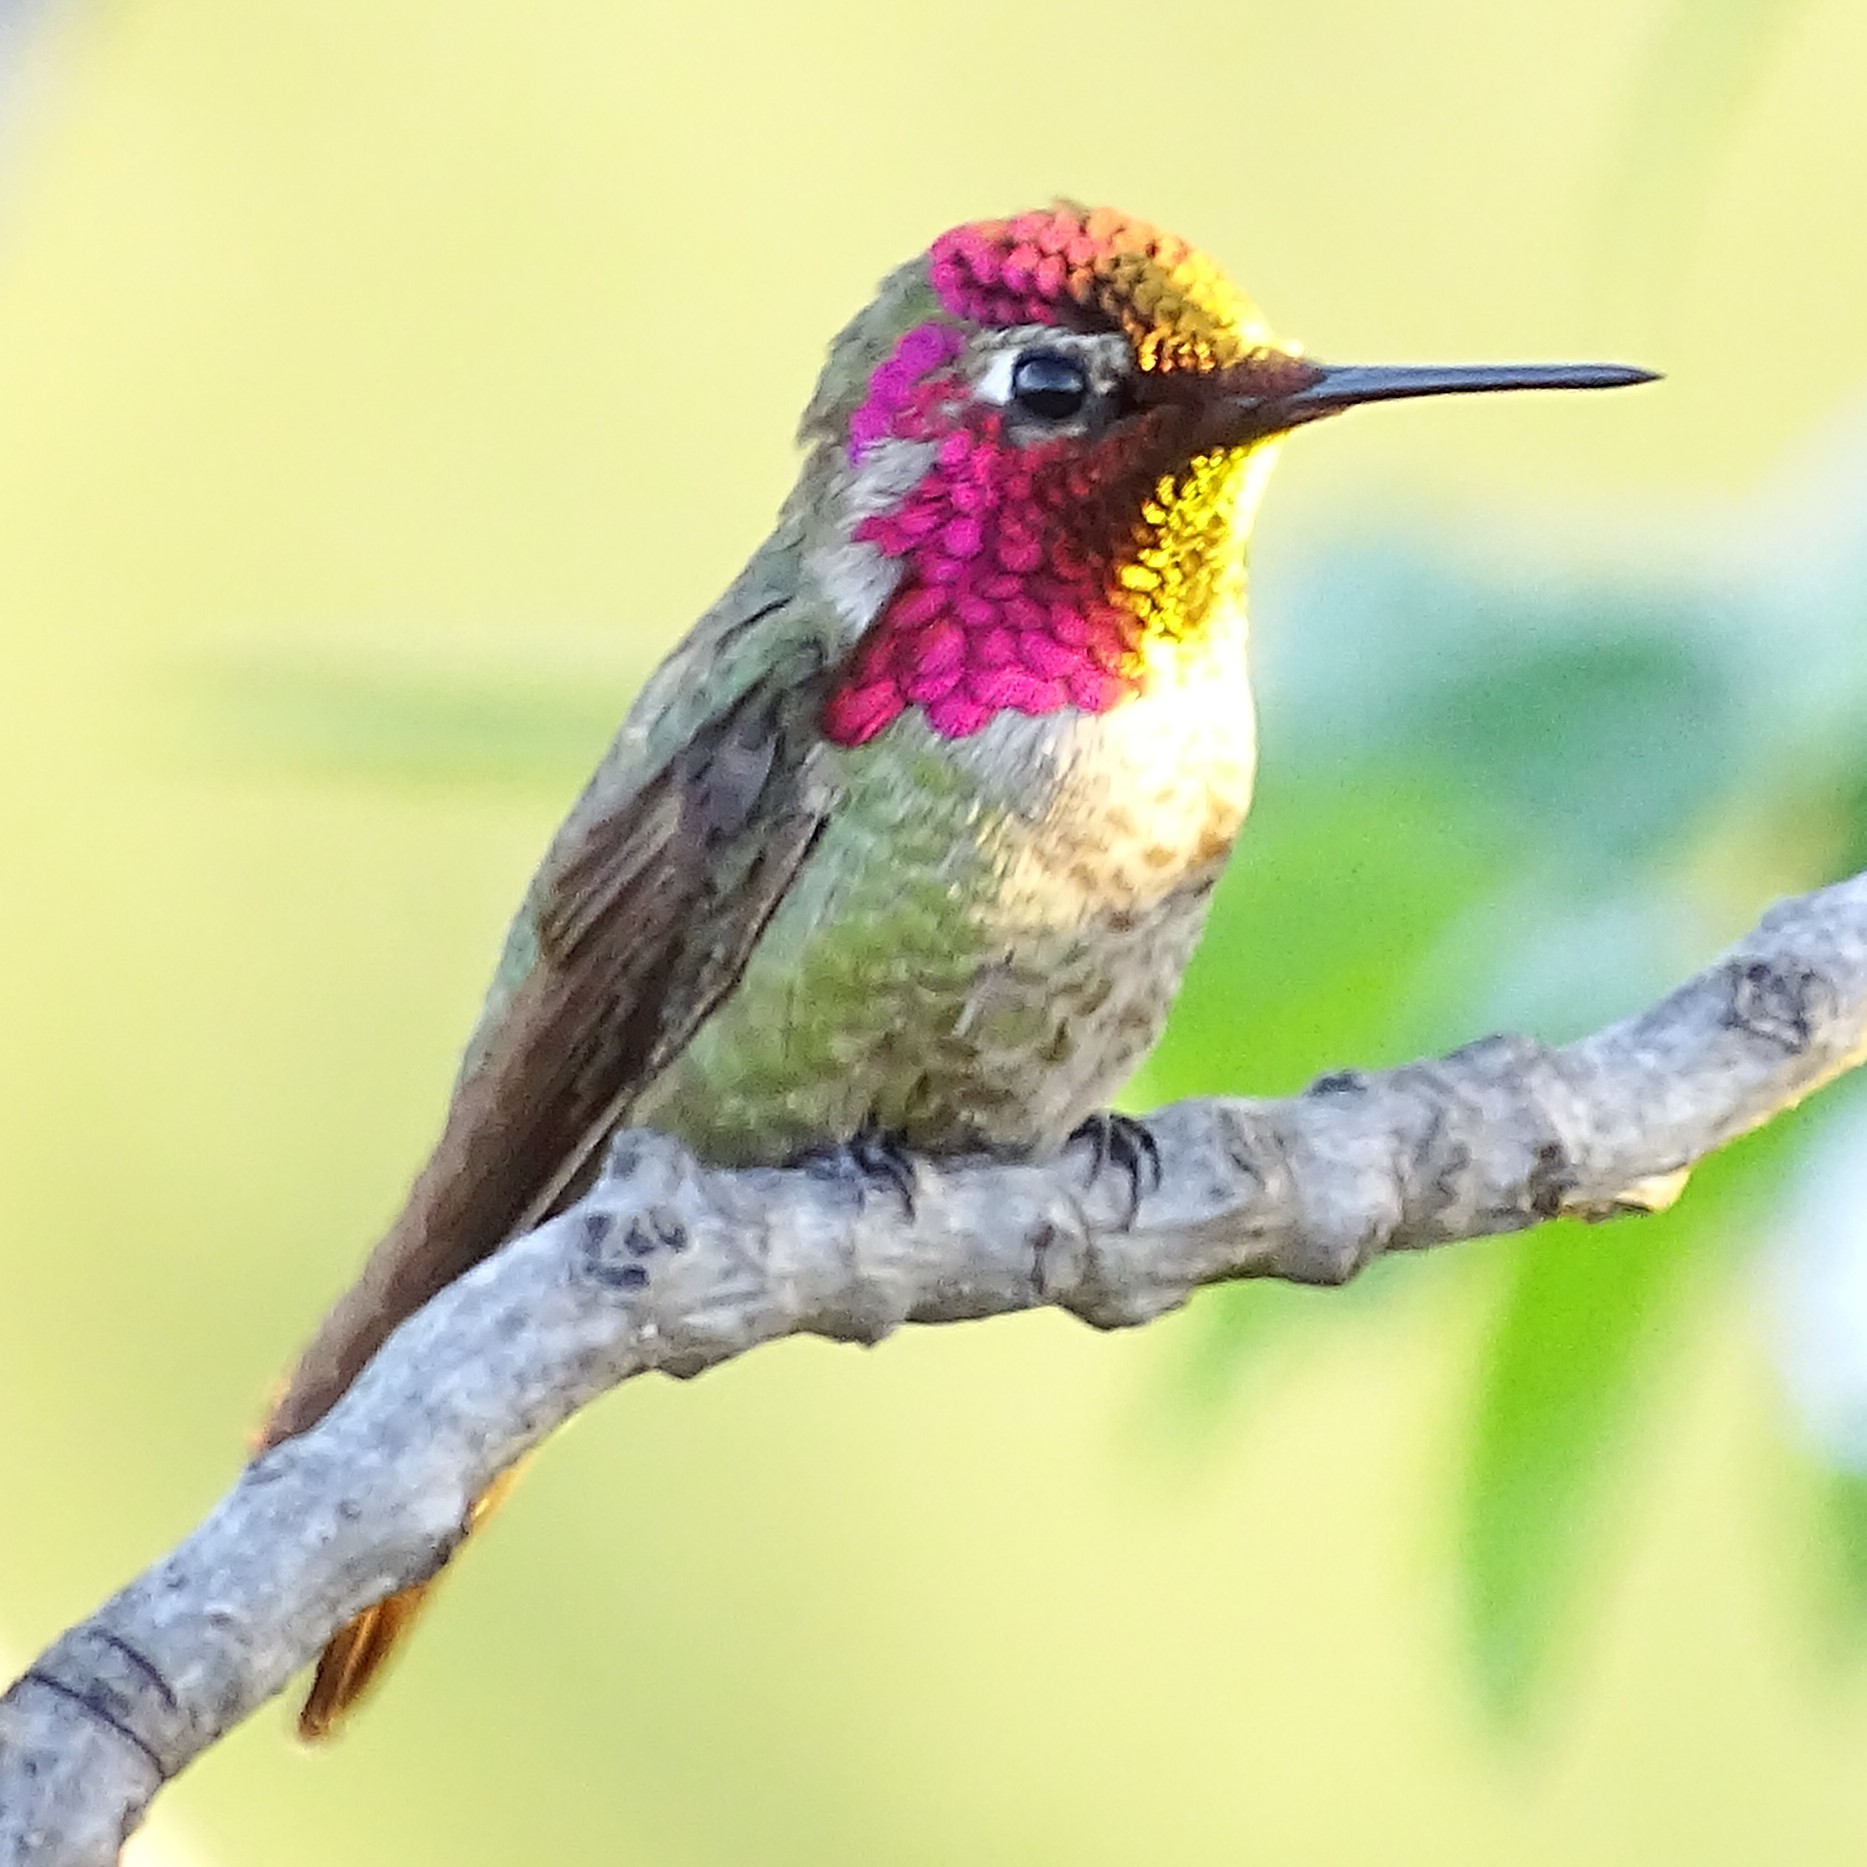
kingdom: Animalia
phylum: Chordata
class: Aves
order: Apodiformes
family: Trochilidae
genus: Calypte
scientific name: Calypte anna
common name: Anna's hummingbird
